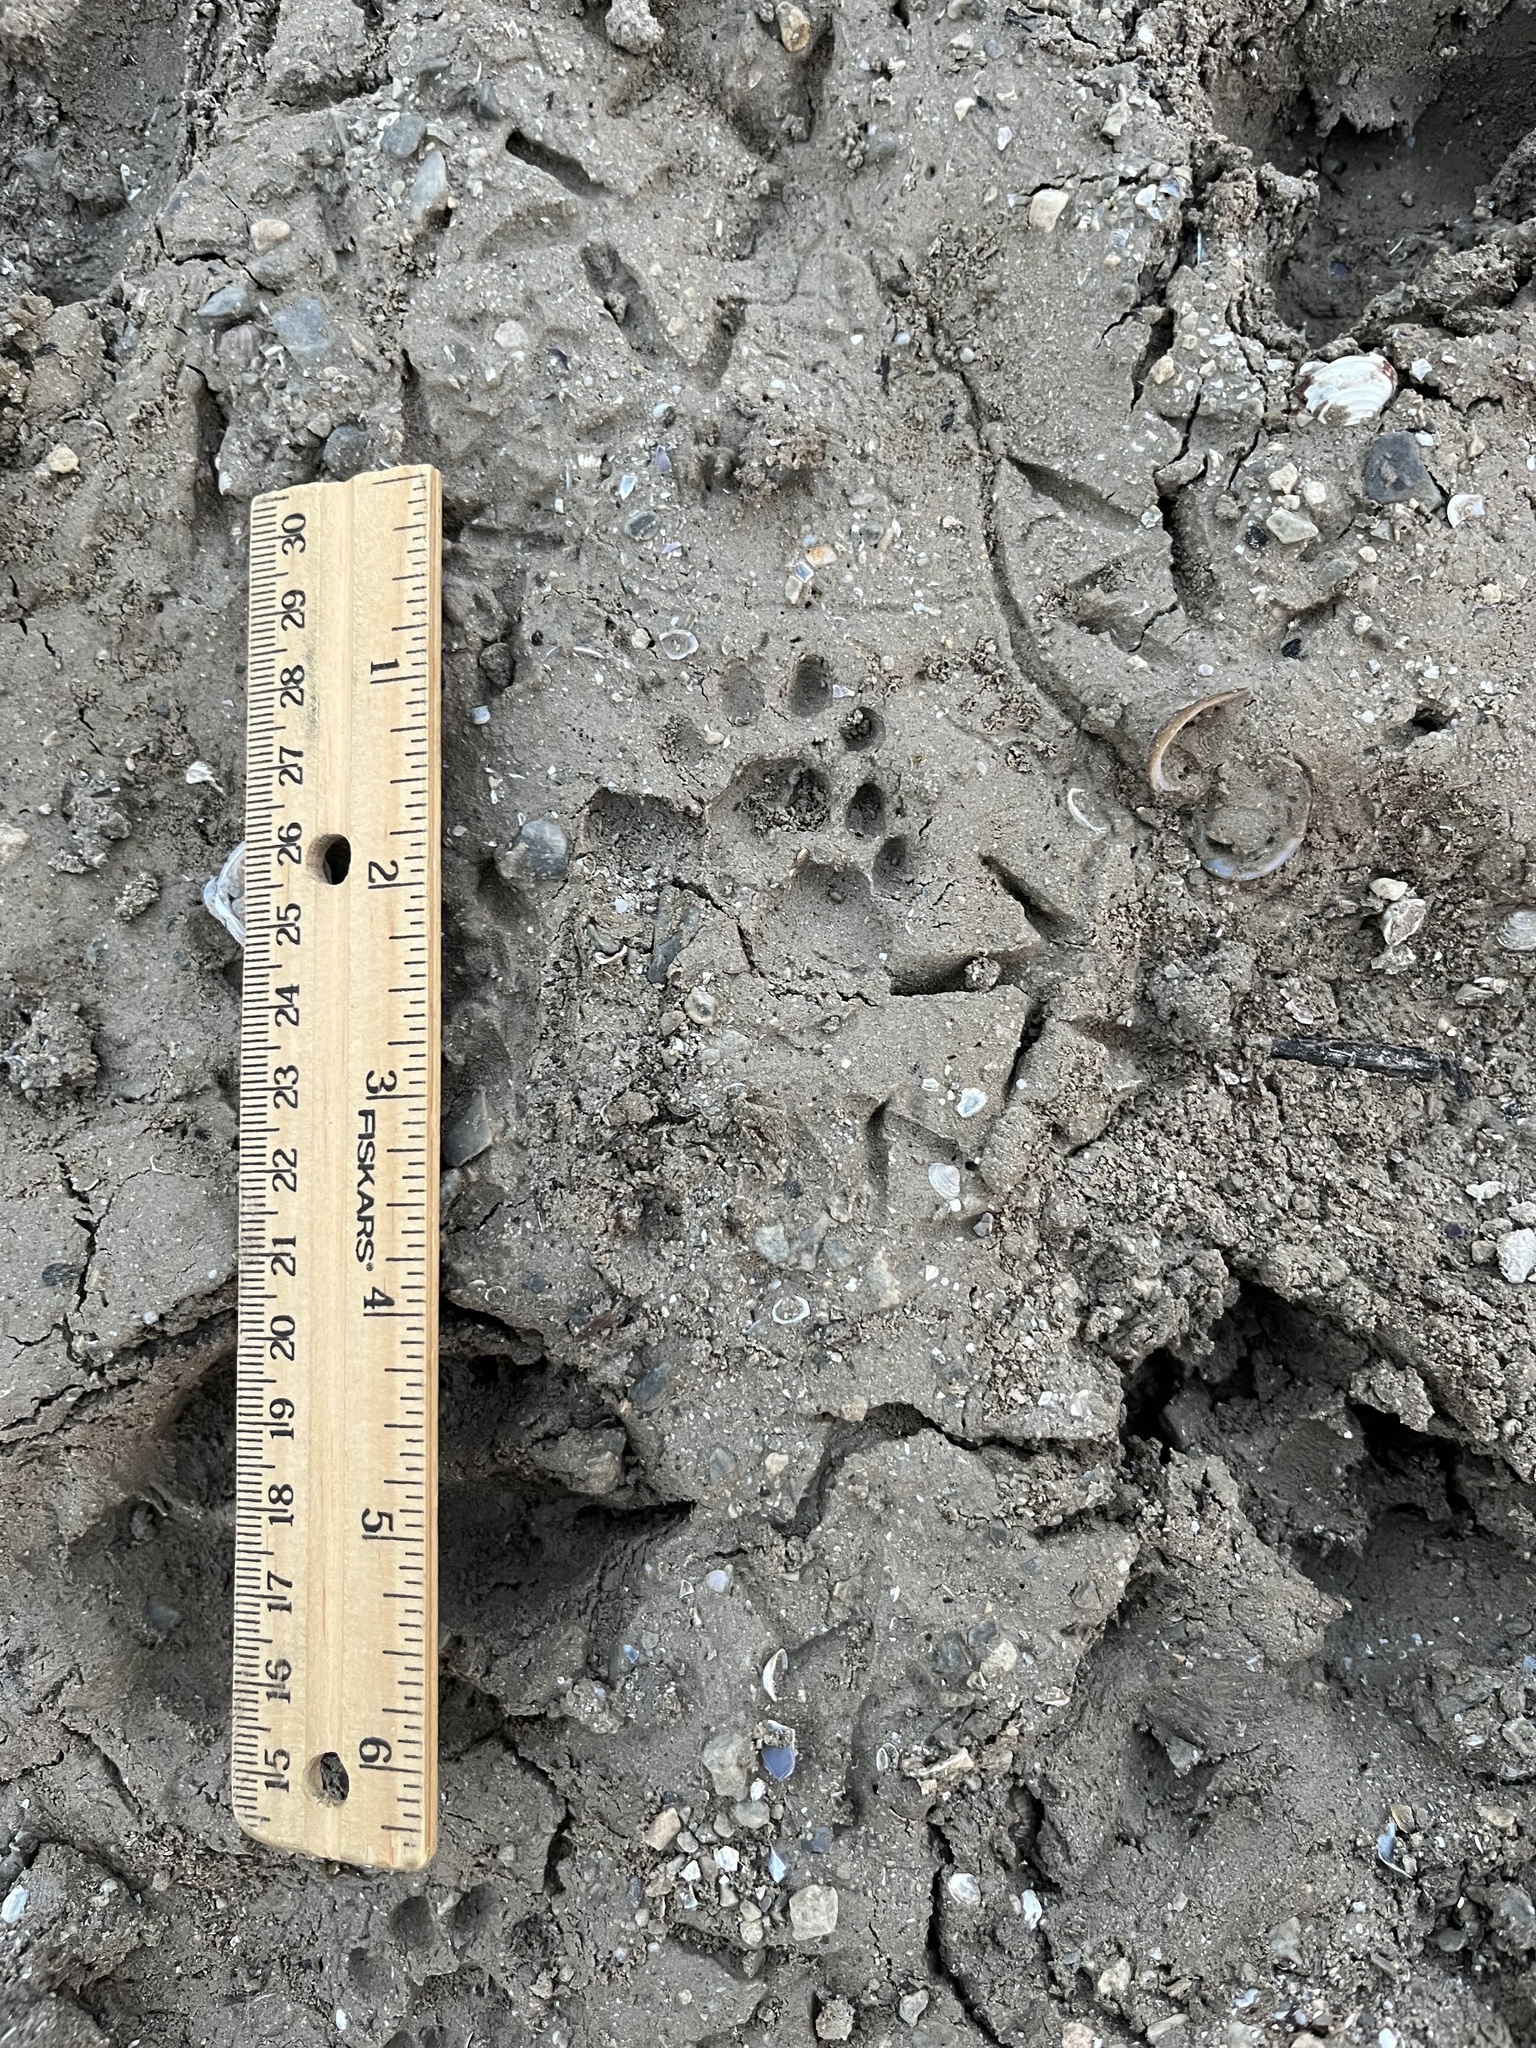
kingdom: Animalia
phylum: Chordata
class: Mammalia
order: Carnivora
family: Procyonidae
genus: Bassariscus
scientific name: Bassariscus astutus
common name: Ringtail
